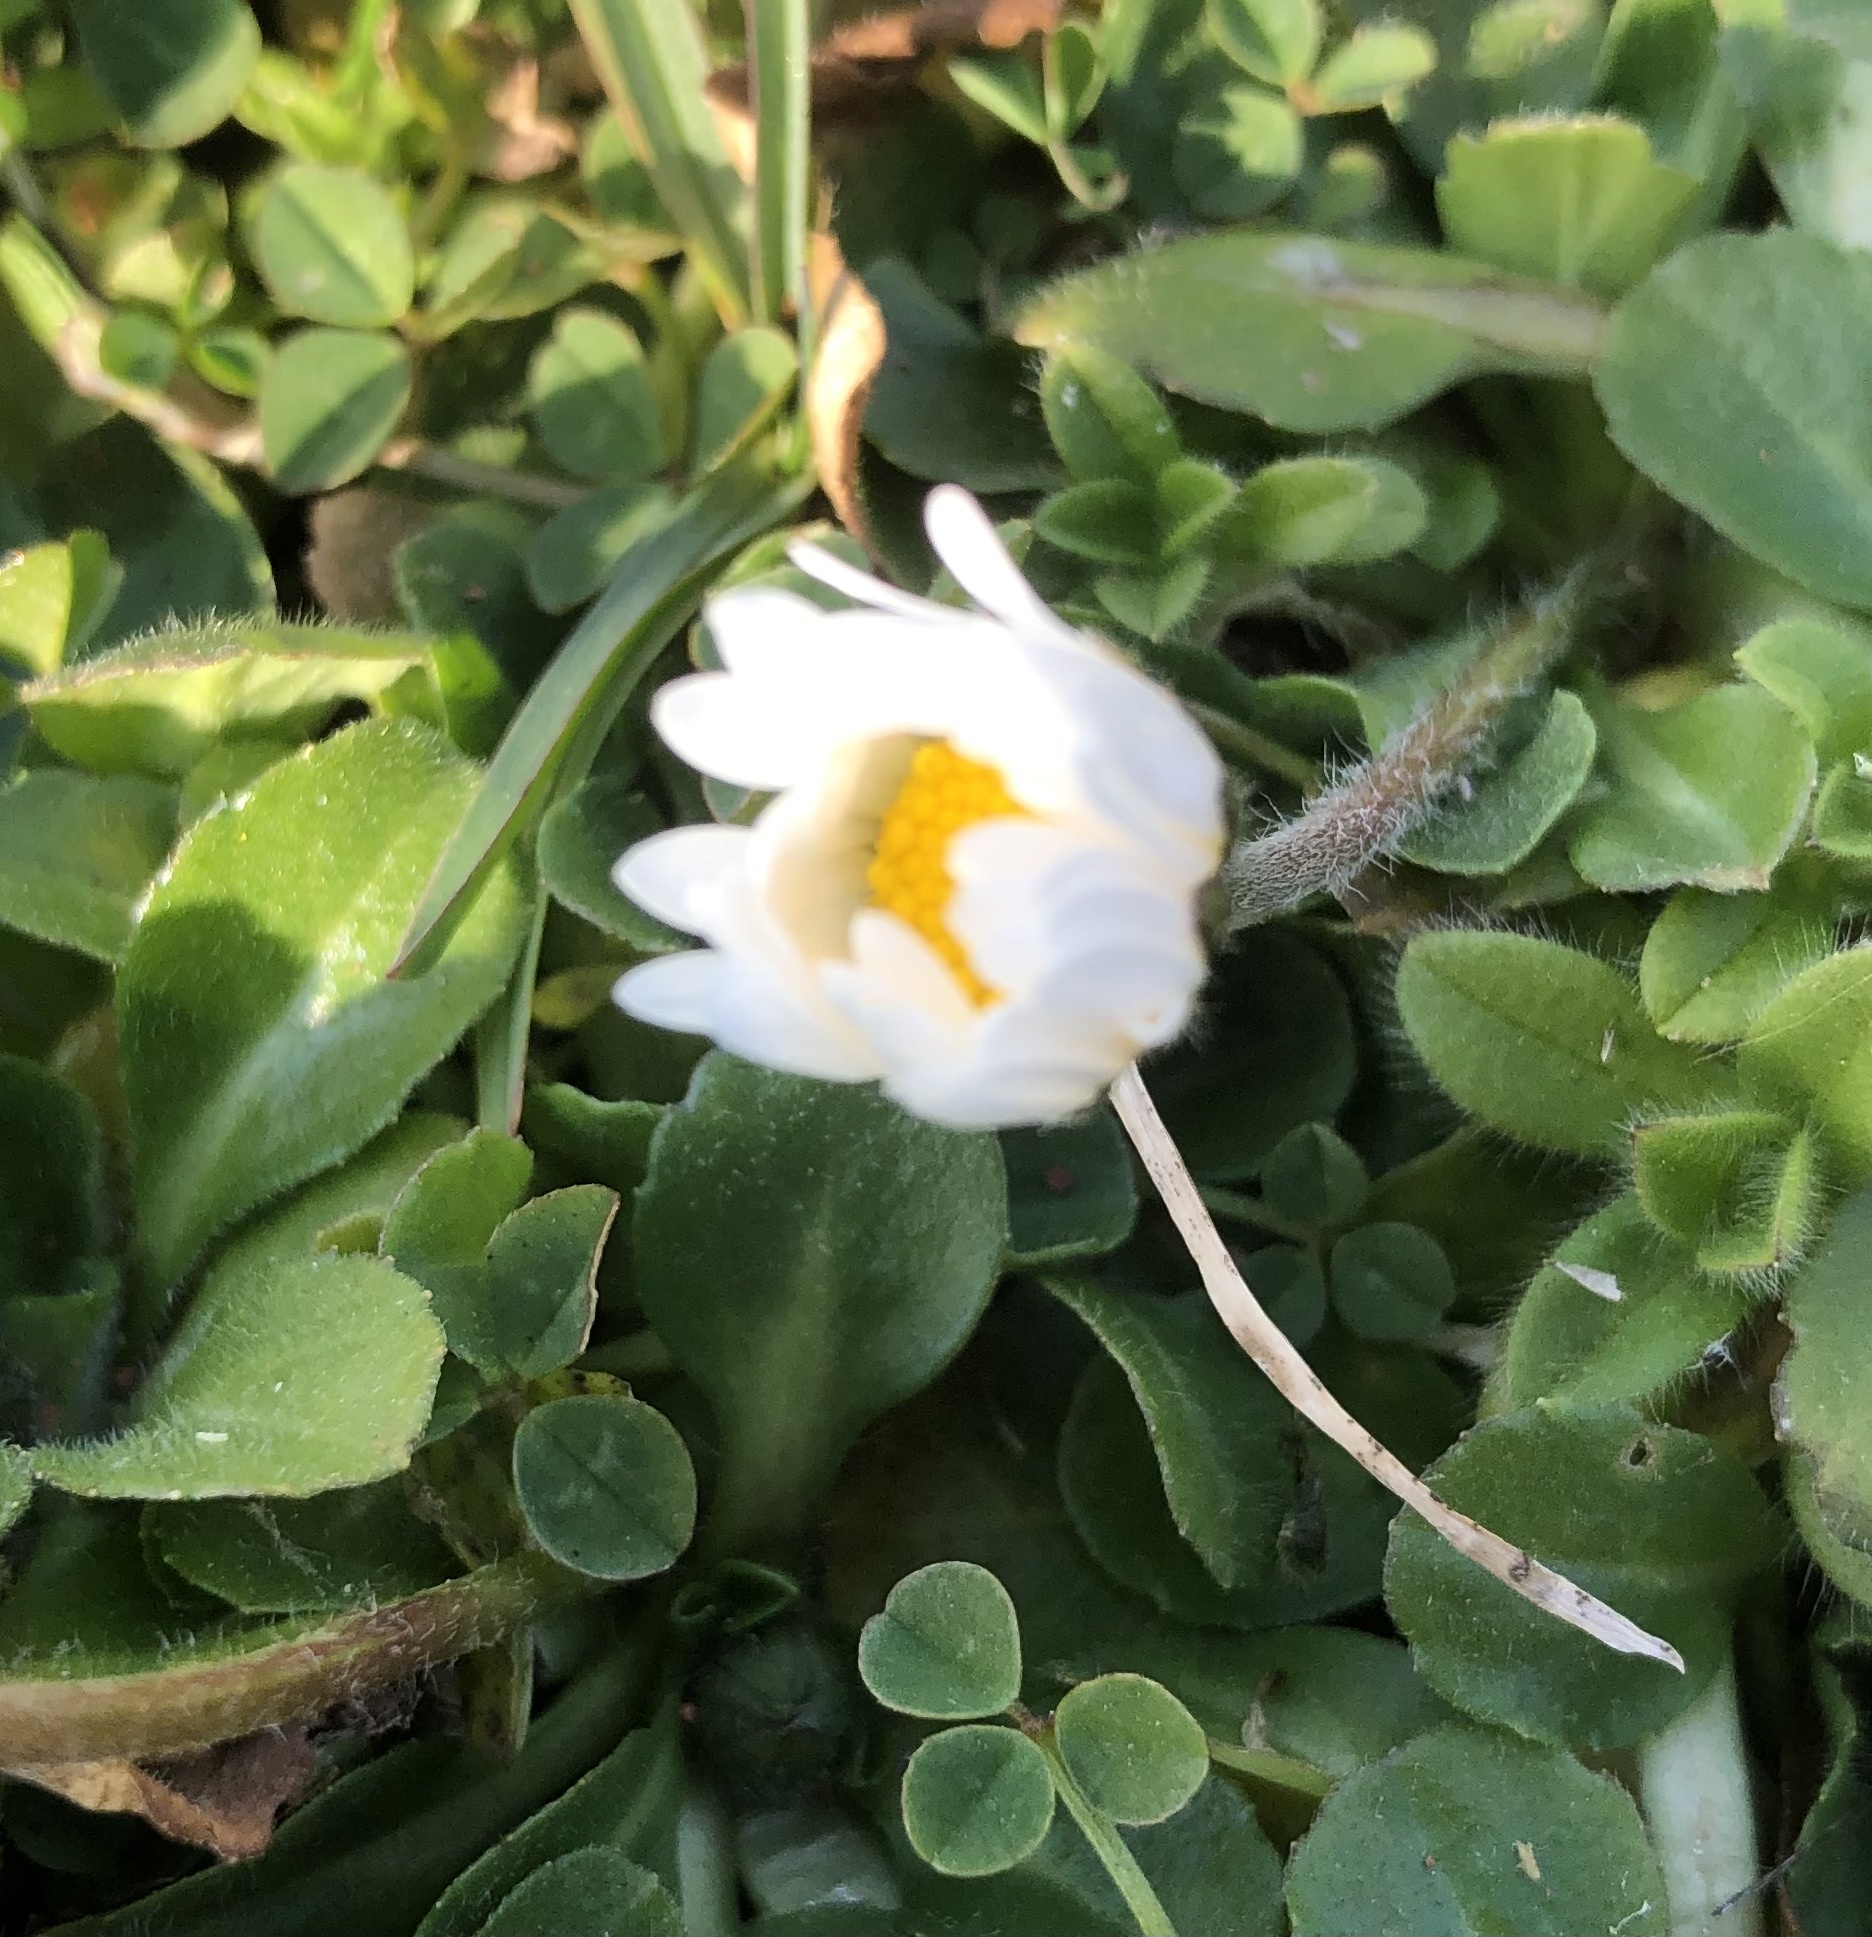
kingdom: Plantae
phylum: Tracheophyta
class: Magnoliopsida
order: Asterales
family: Asteraceae
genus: Bellis
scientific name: Bellis perennis
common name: Lawndaisy
